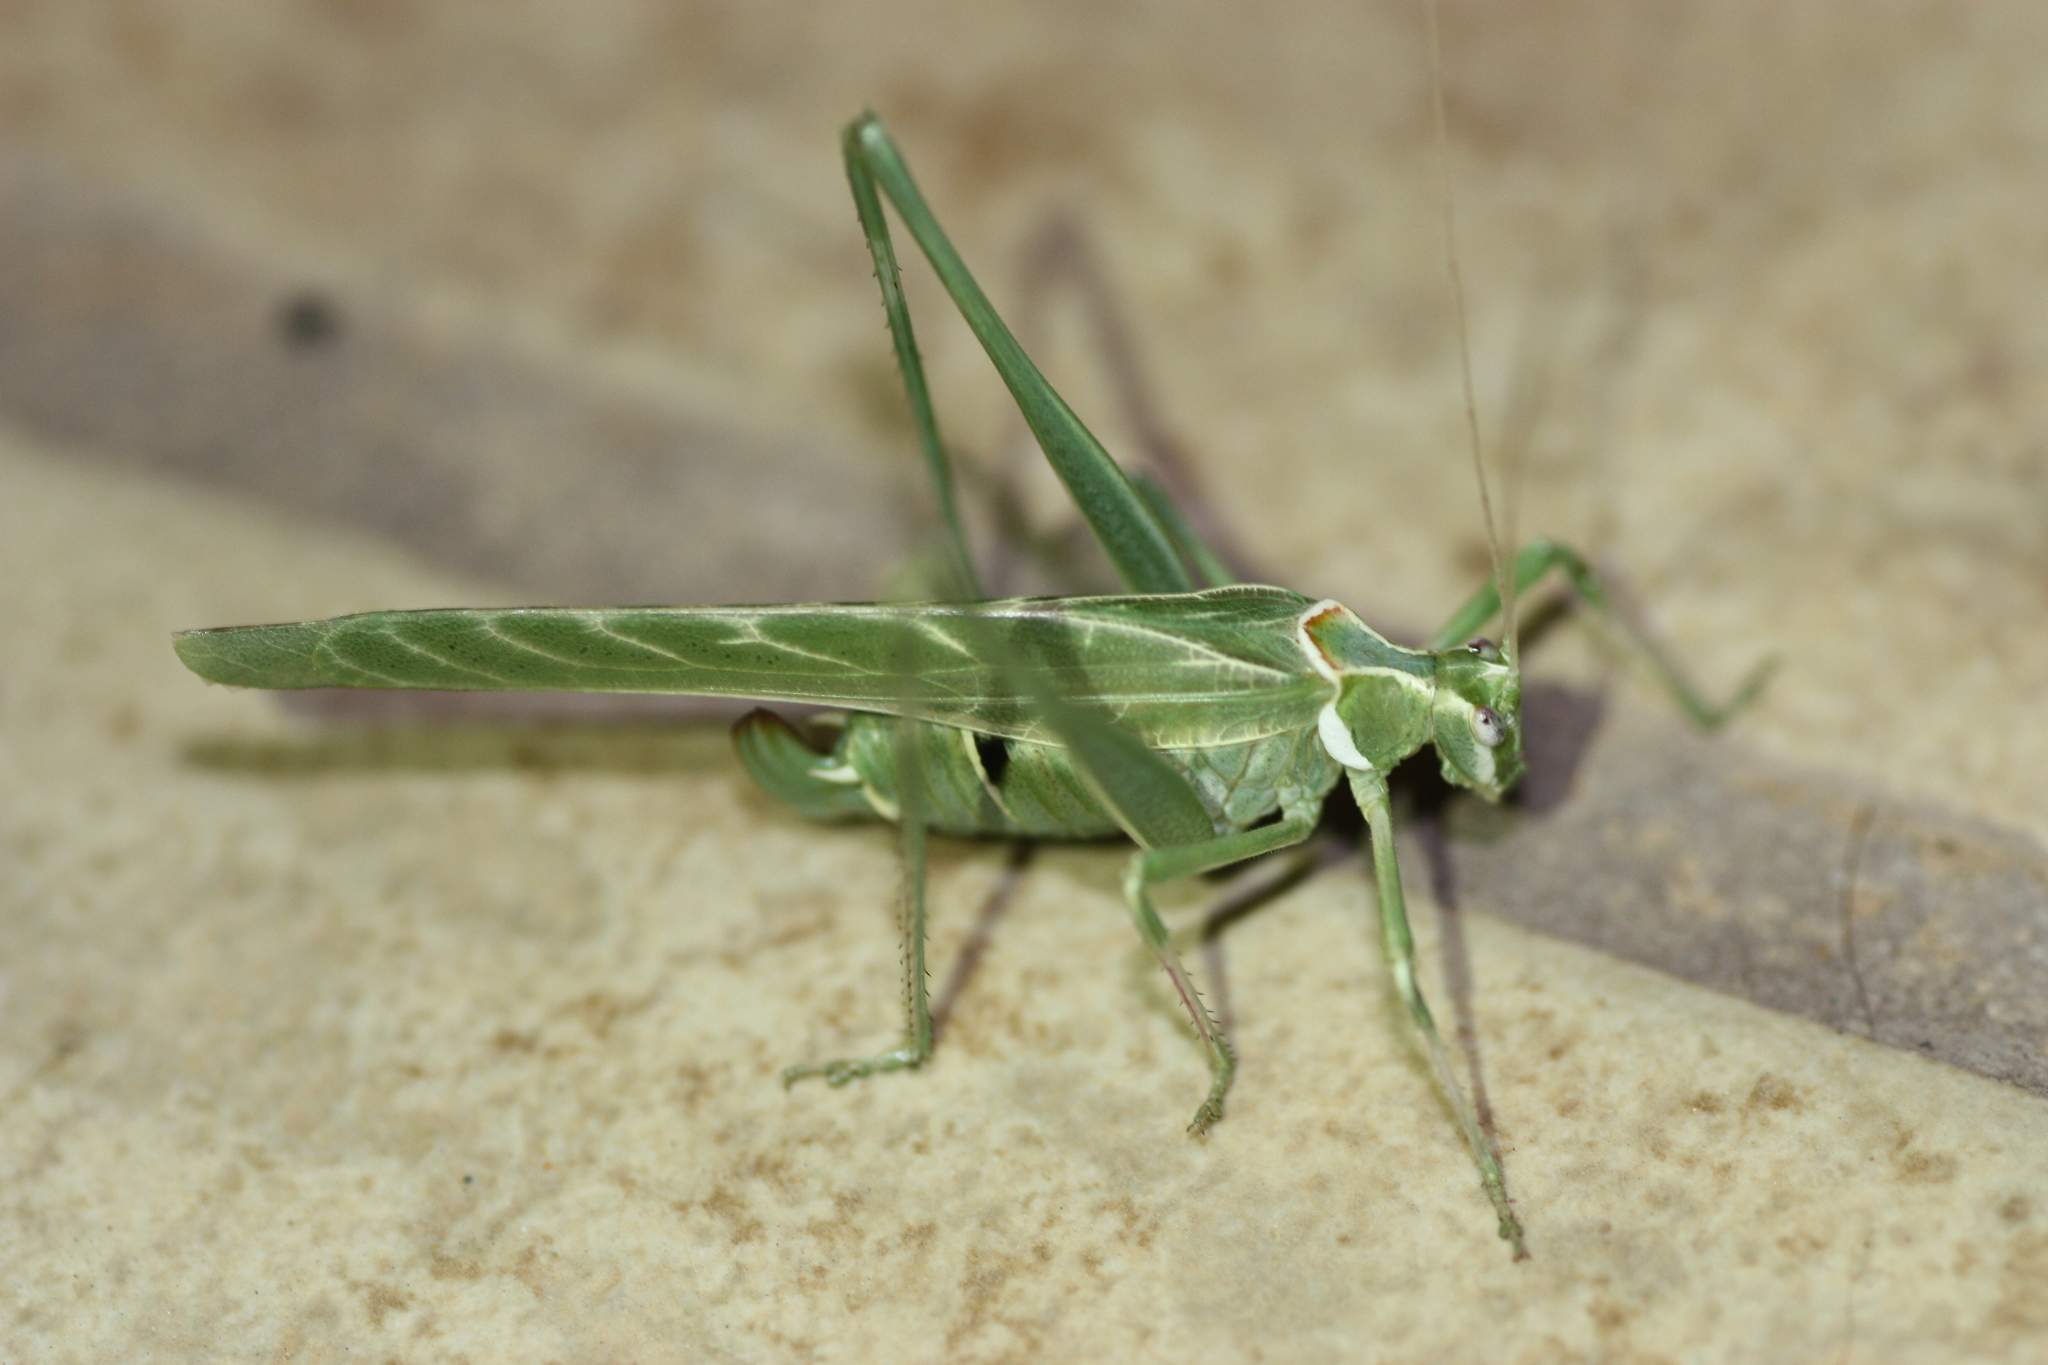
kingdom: Animalia
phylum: Arthropoda
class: Insecta
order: Orthoptera
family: Tettigoniidae
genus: Insara
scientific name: Insara elegans
